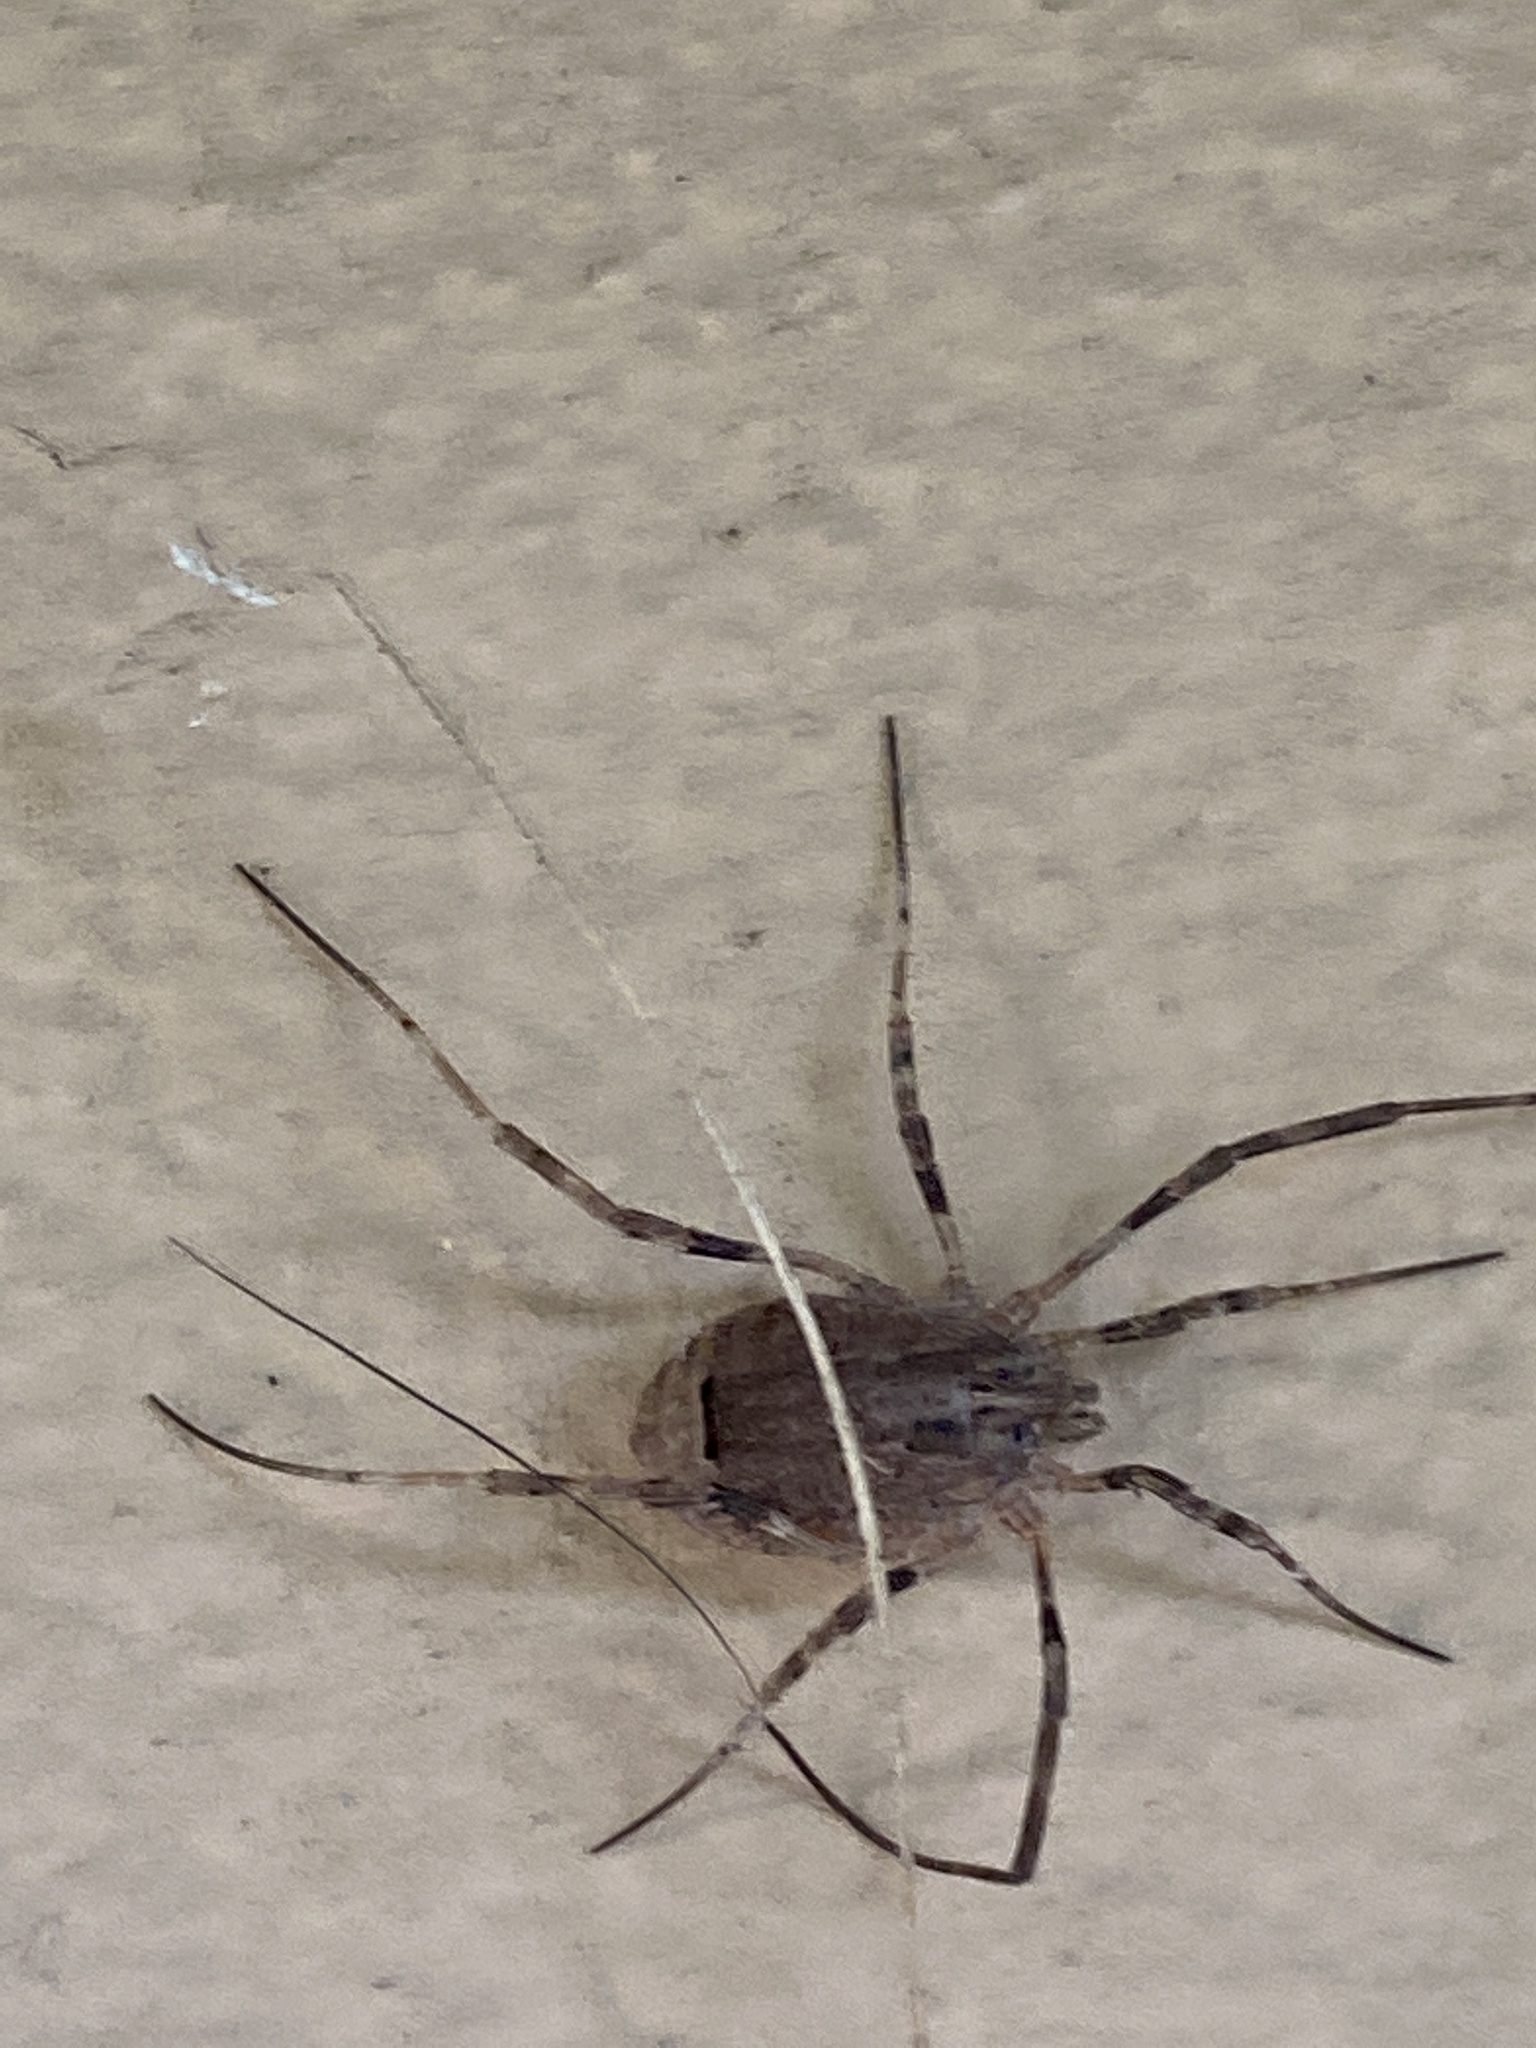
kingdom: Animalia
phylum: Arthropoda
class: Arachnida
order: Opiliones
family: Phalangiidae
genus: Odiellus
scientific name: Odiellus spinosus
